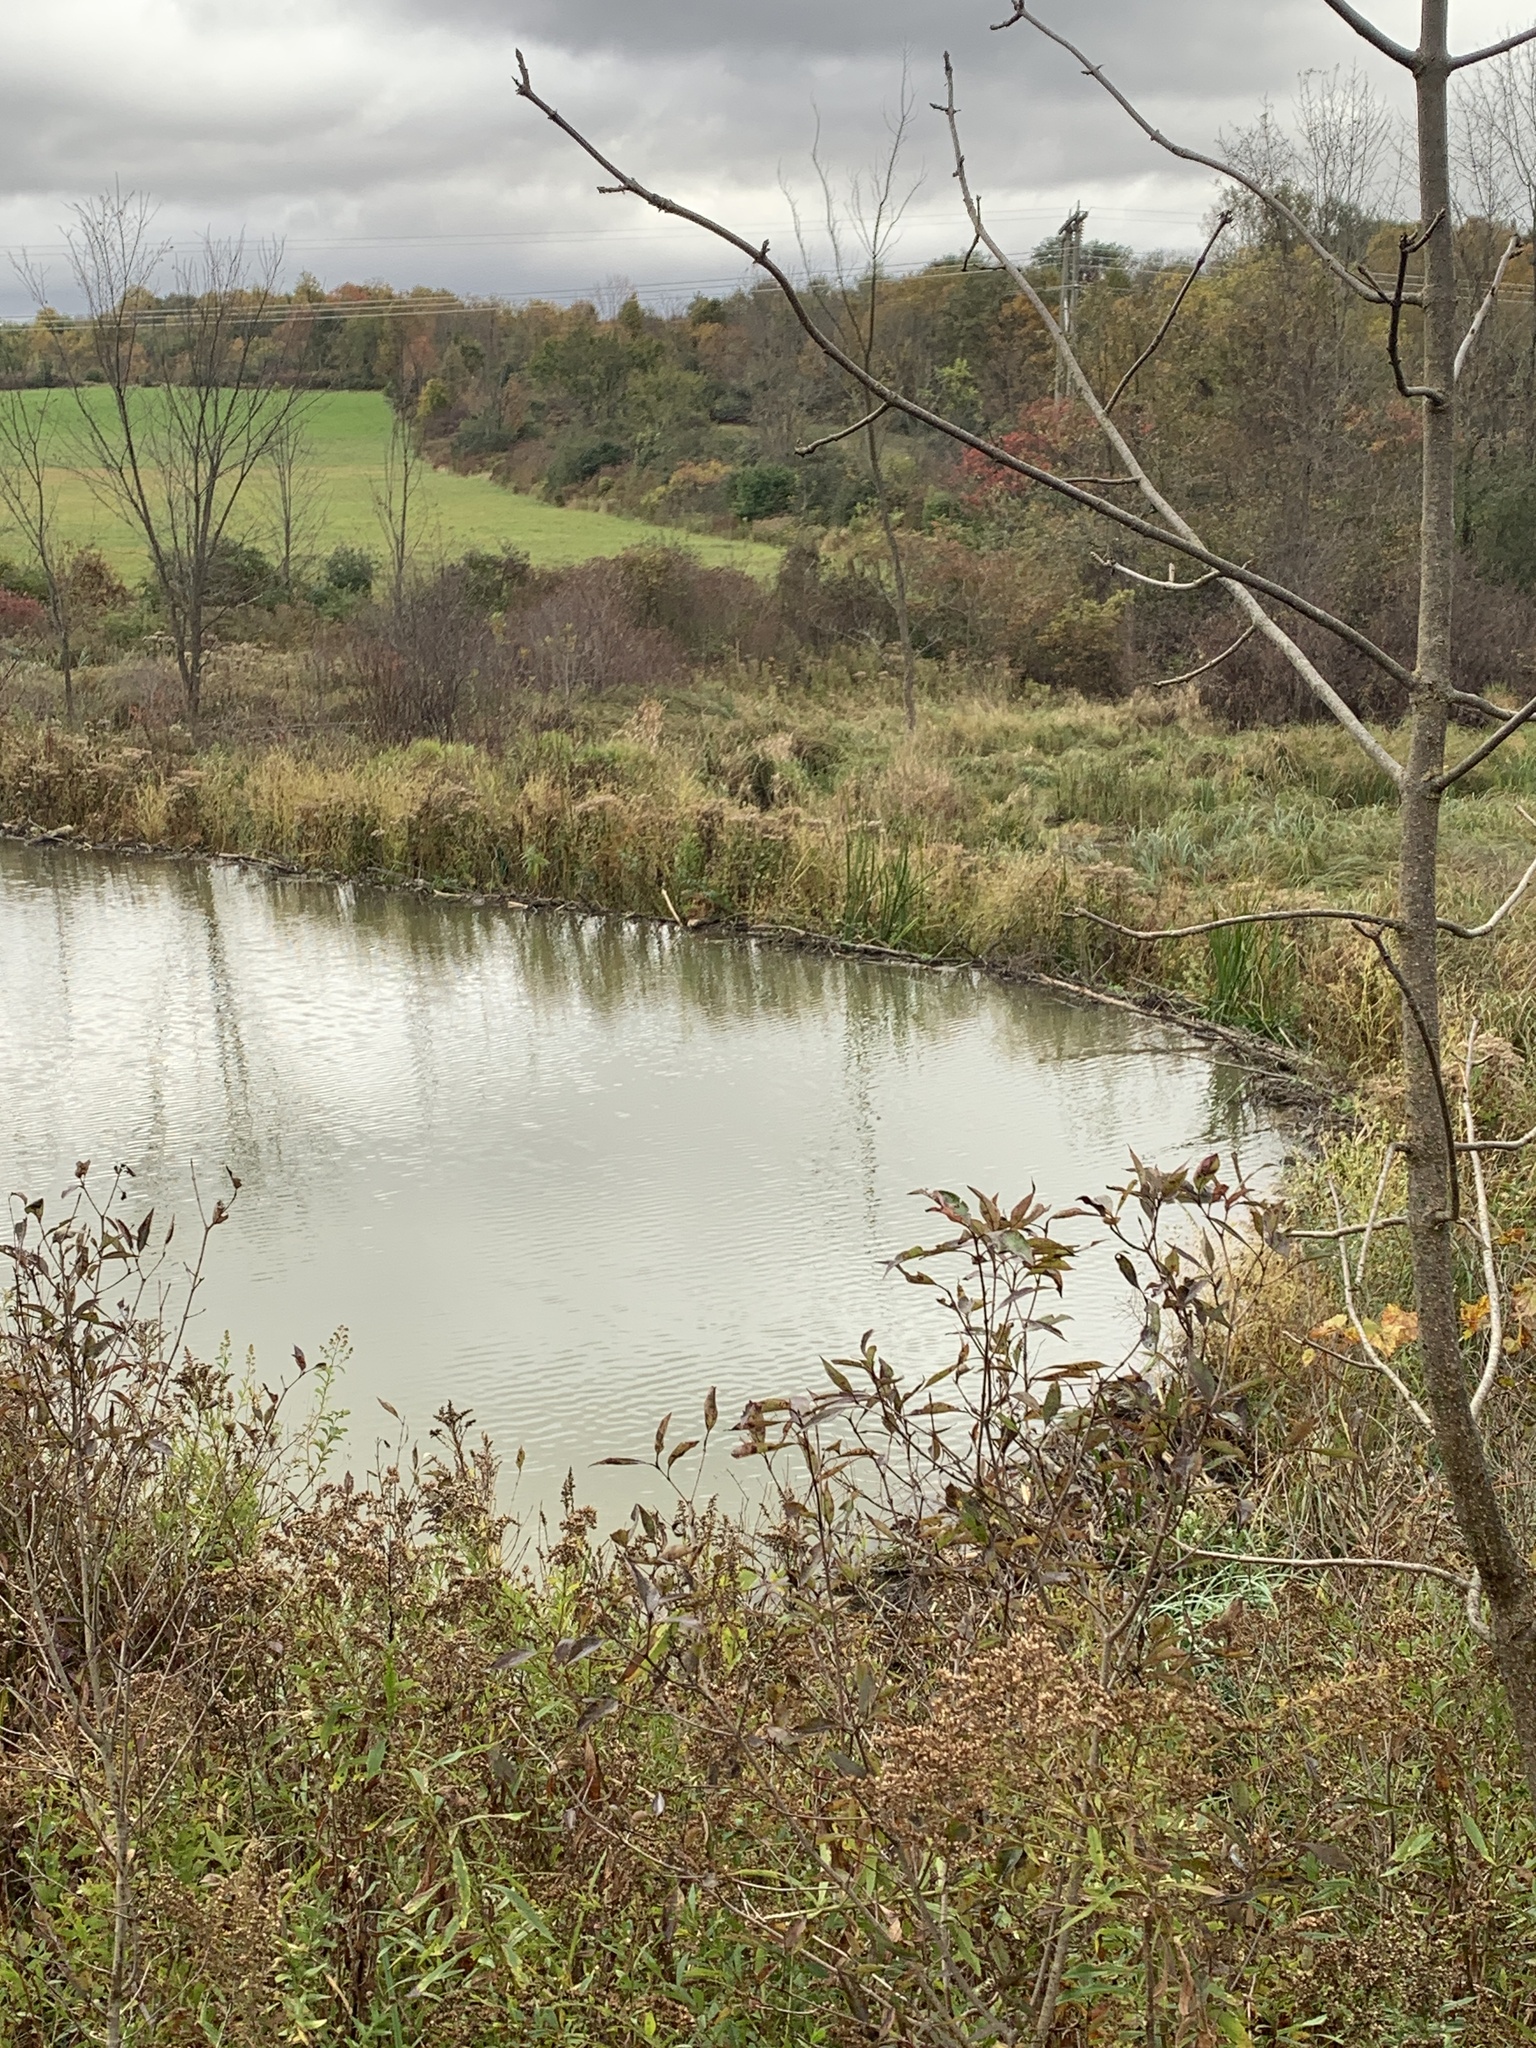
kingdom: Animalia
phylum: Chordata
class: Mammalia
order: Rodentia
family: Castoridae
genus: Castor
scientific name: Castor canadensis
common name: American beaver
